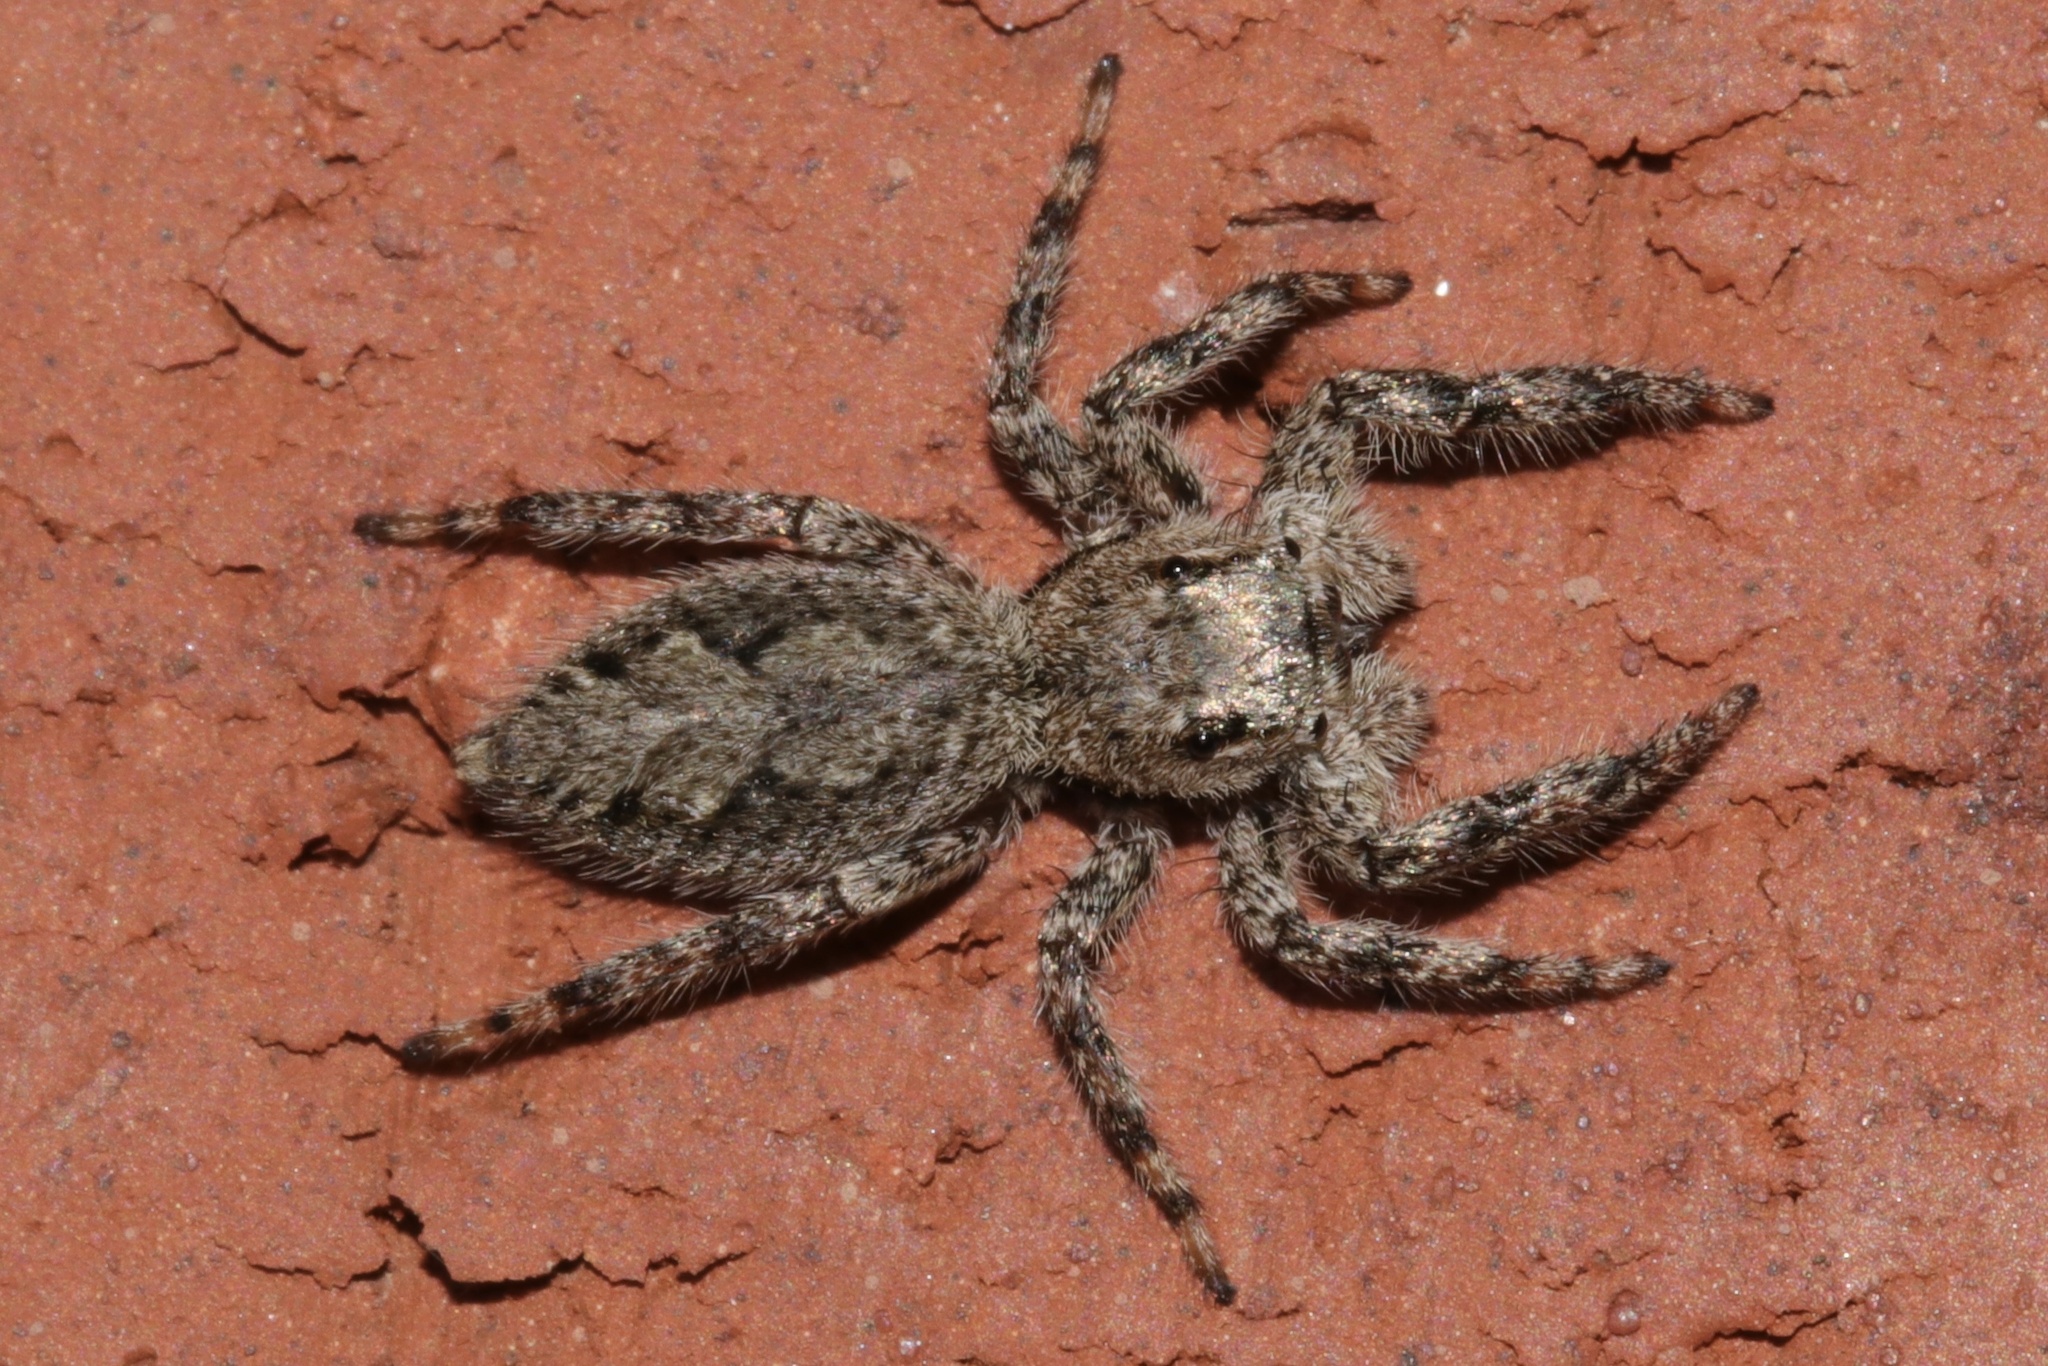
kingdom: Animalia
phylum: Arthropoda
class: Arachnida
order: Araneae
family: Salticidae
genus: Platycryptus
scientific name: Platycryptus undatus
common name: Tan jumping spider
